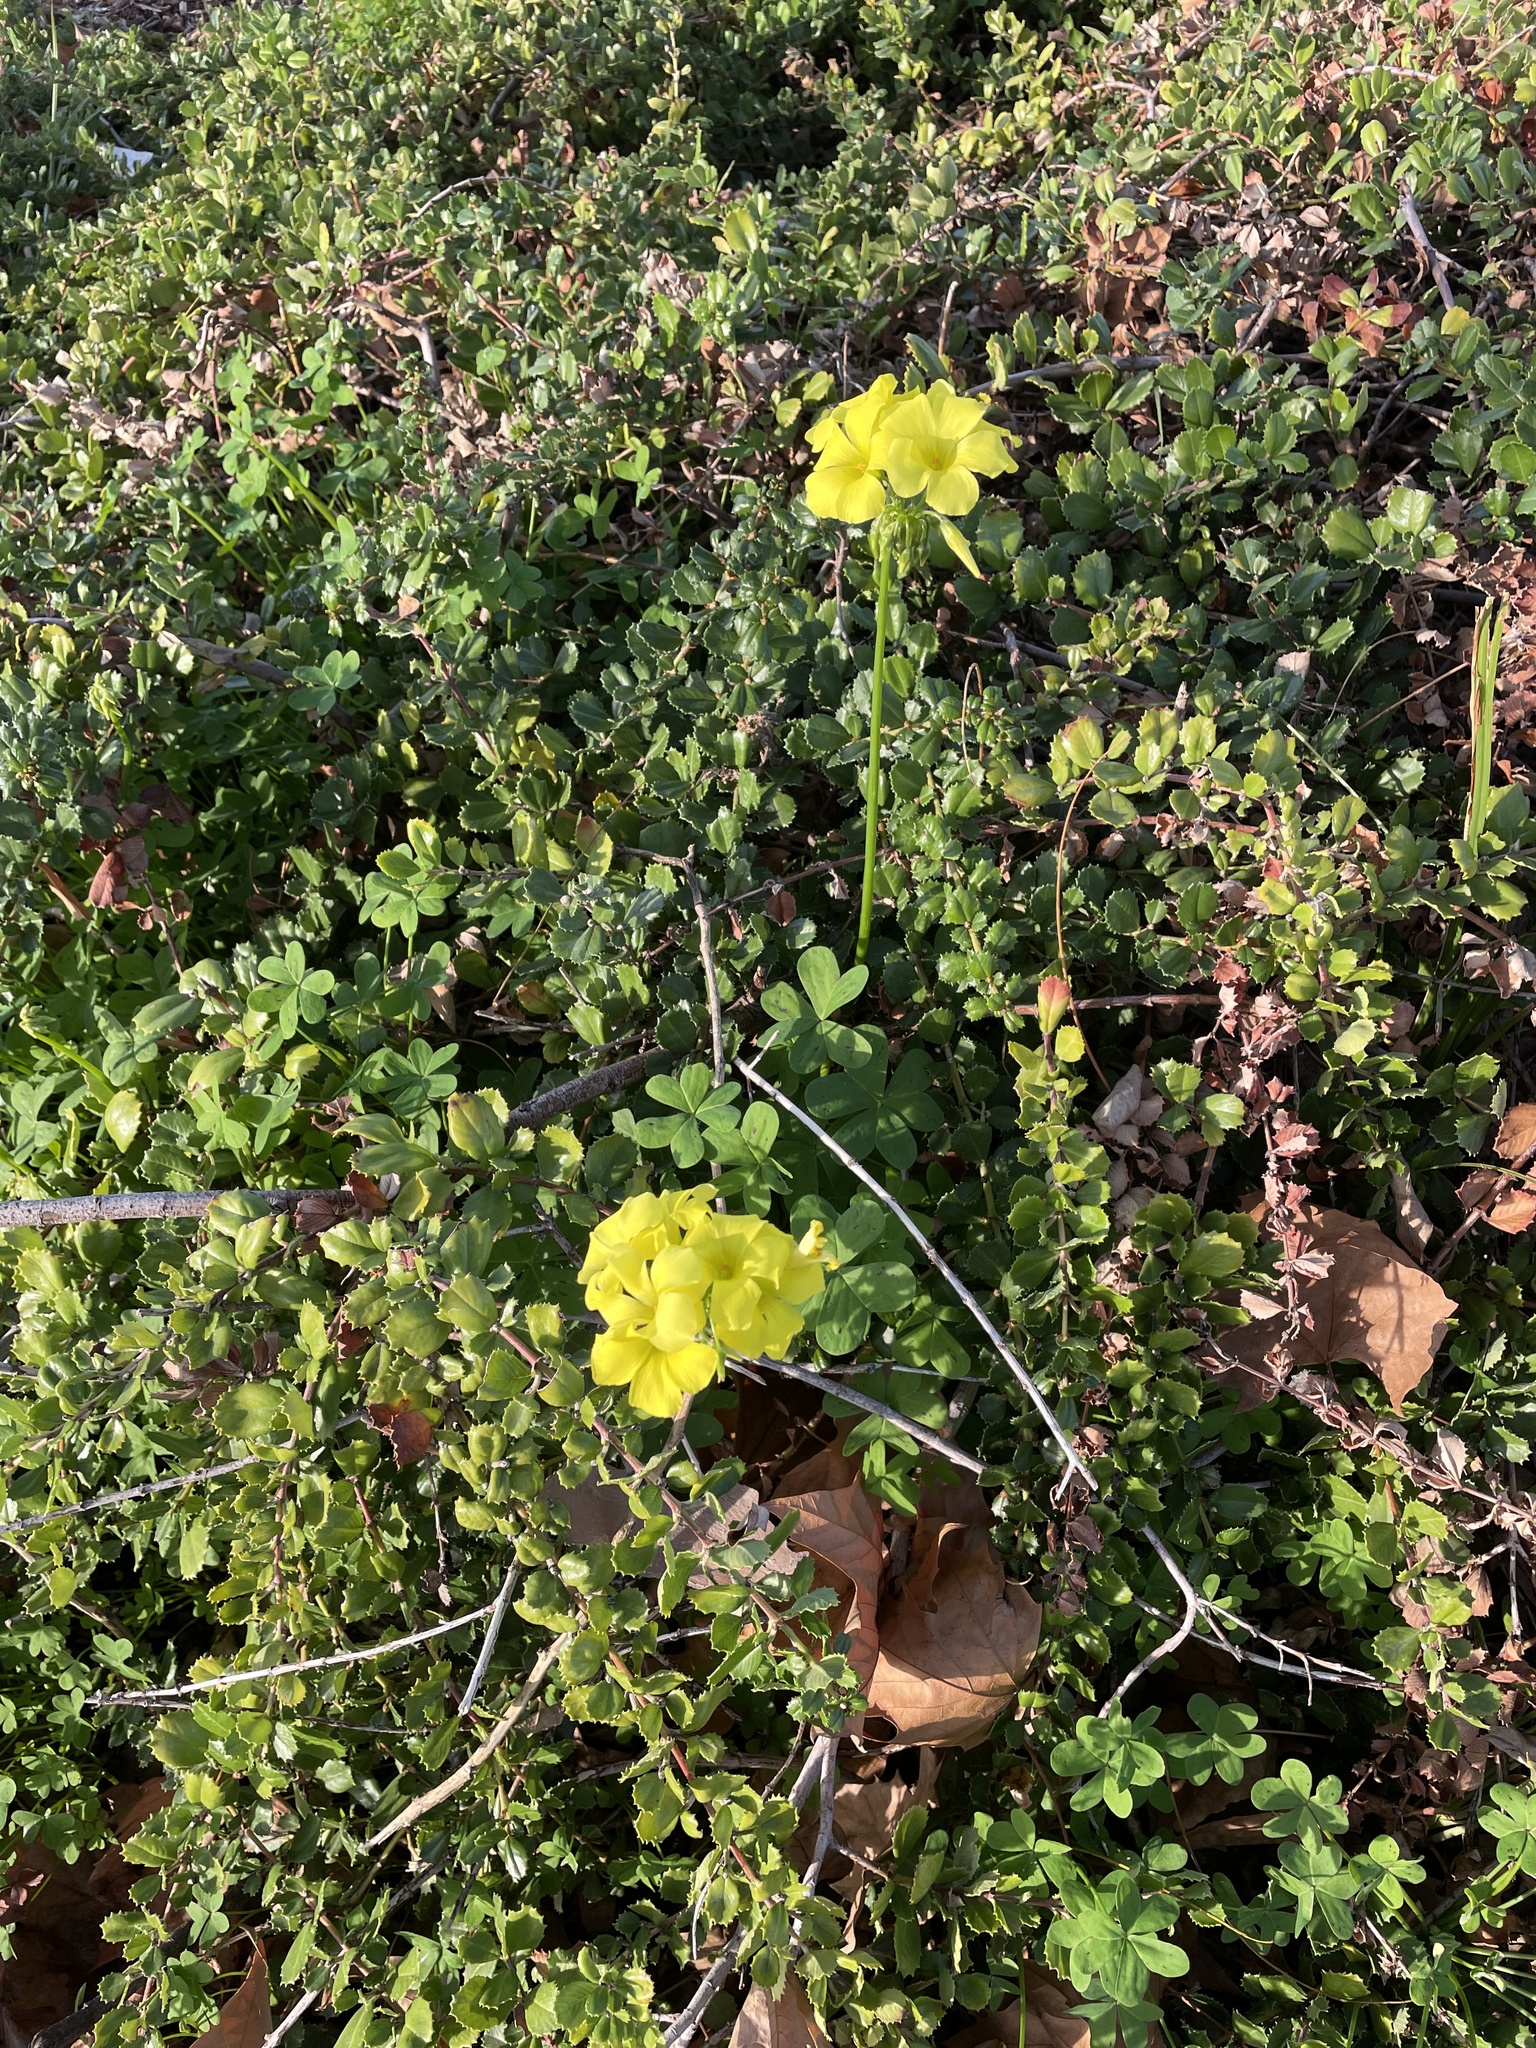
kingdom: Plantae
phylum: Tracheophyta
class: Magnoliopsida
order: Oxalidales
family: Oxalidaceae
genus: Oxalis
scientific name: Oxalis pes-caprae
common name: Bermuda-buttercup
